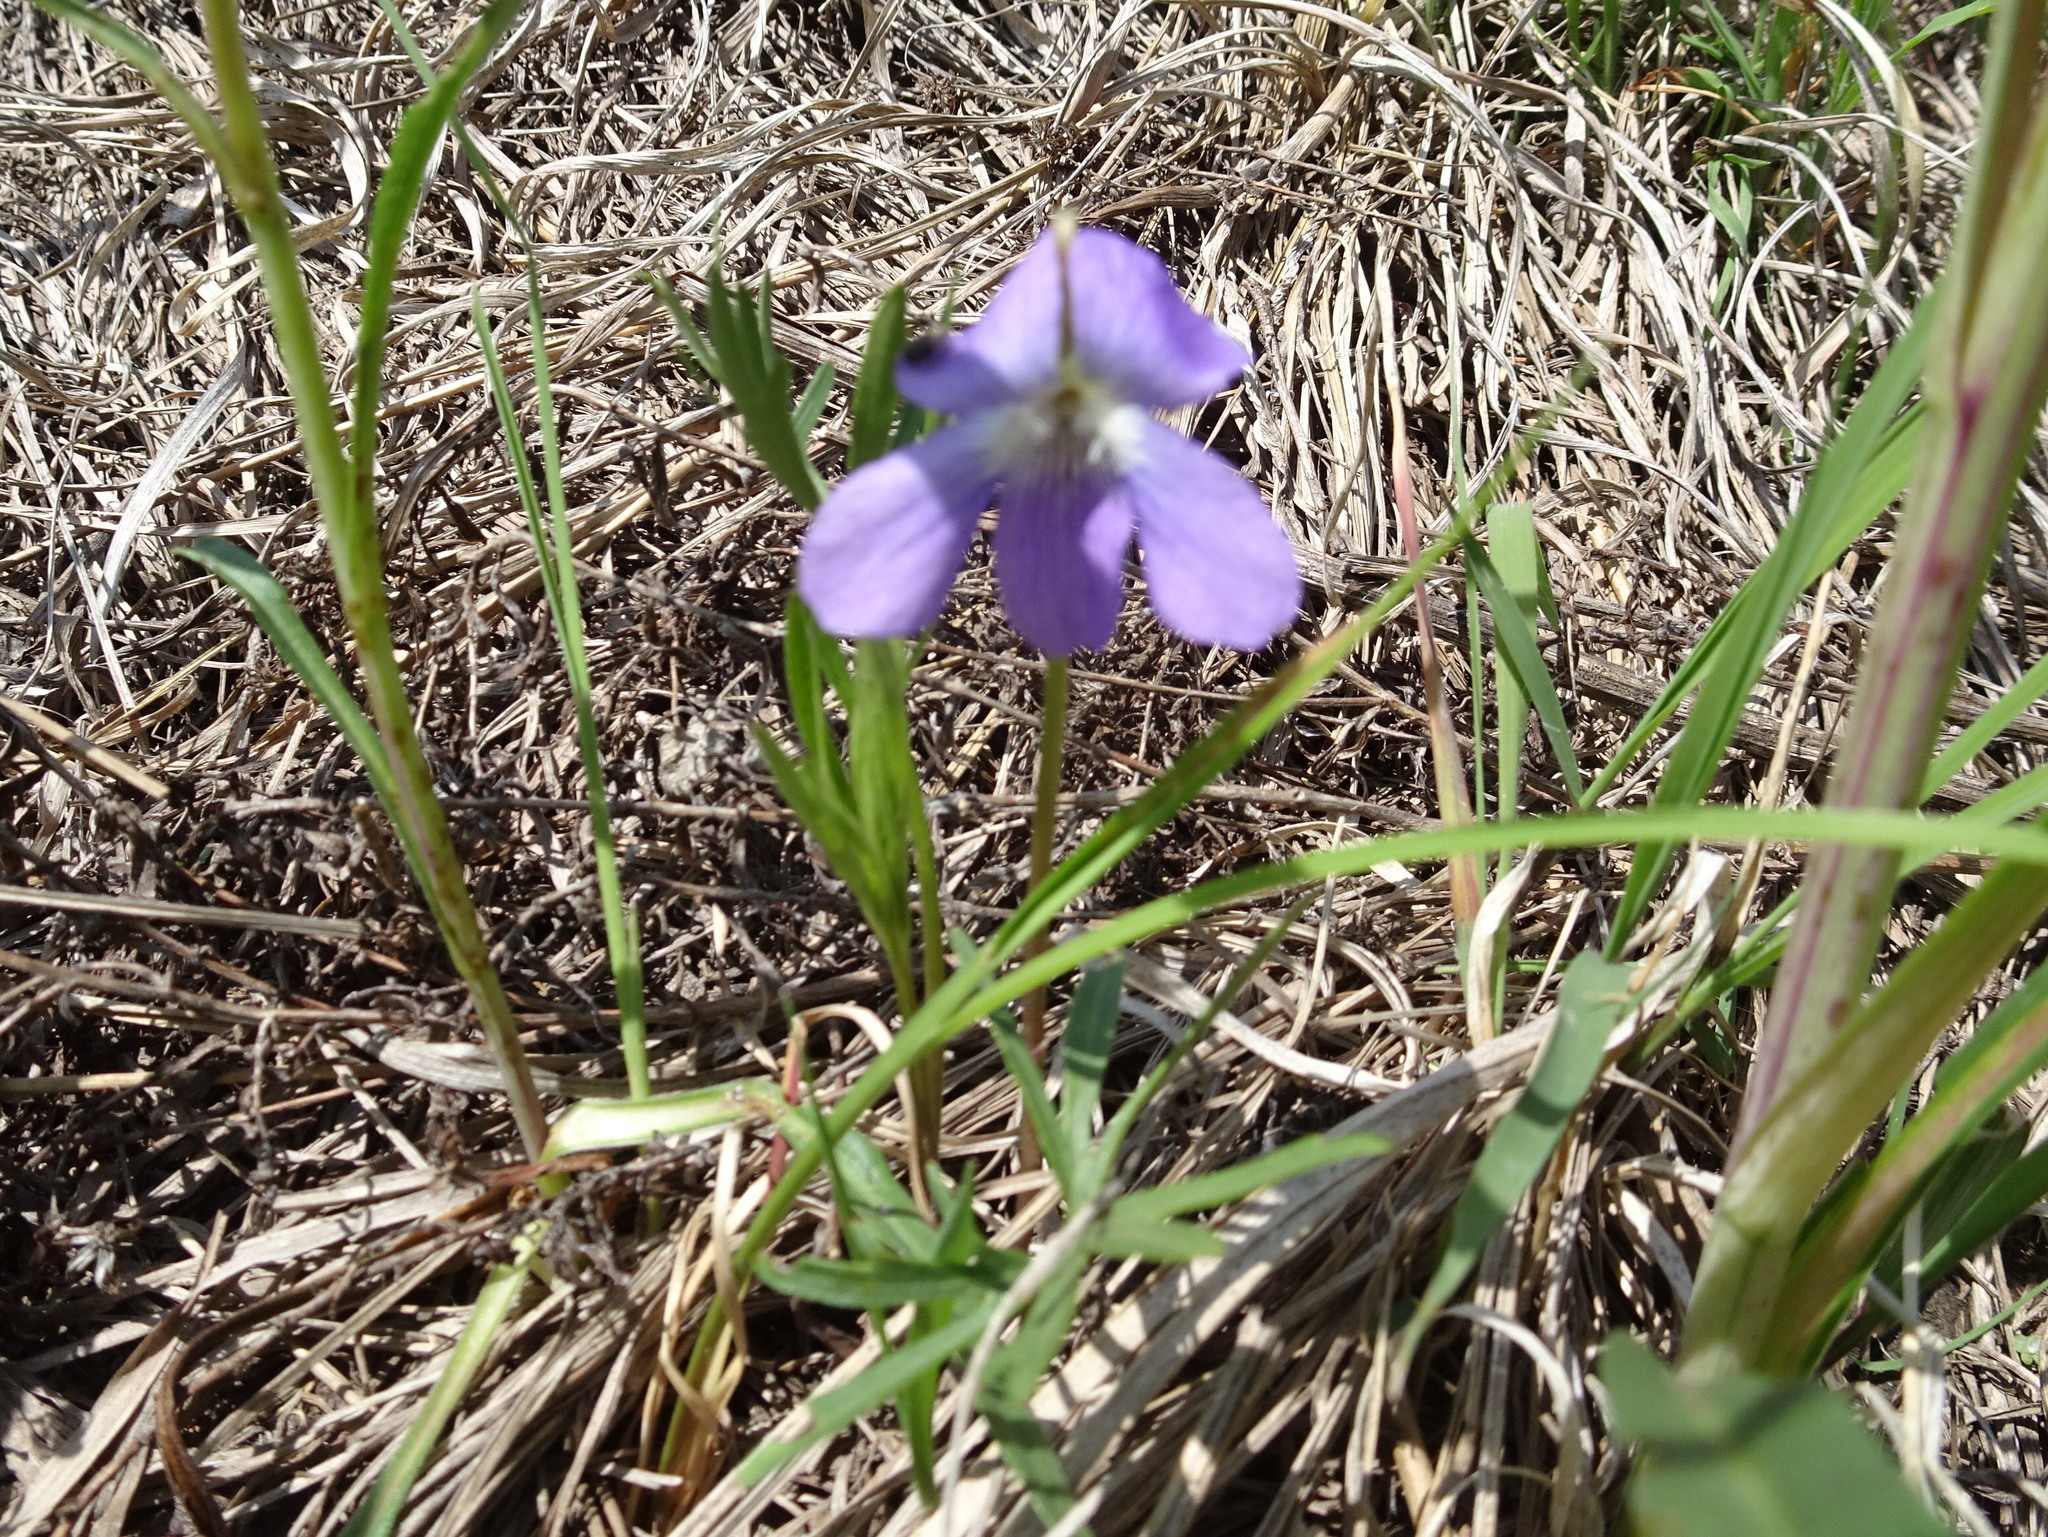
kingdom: Plantae
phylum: Tracheophyta
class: Magnoliopsida
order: Malpighiales
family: Violaceae
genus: Viola
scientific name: Viola pedatifida
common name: Prairie violet
